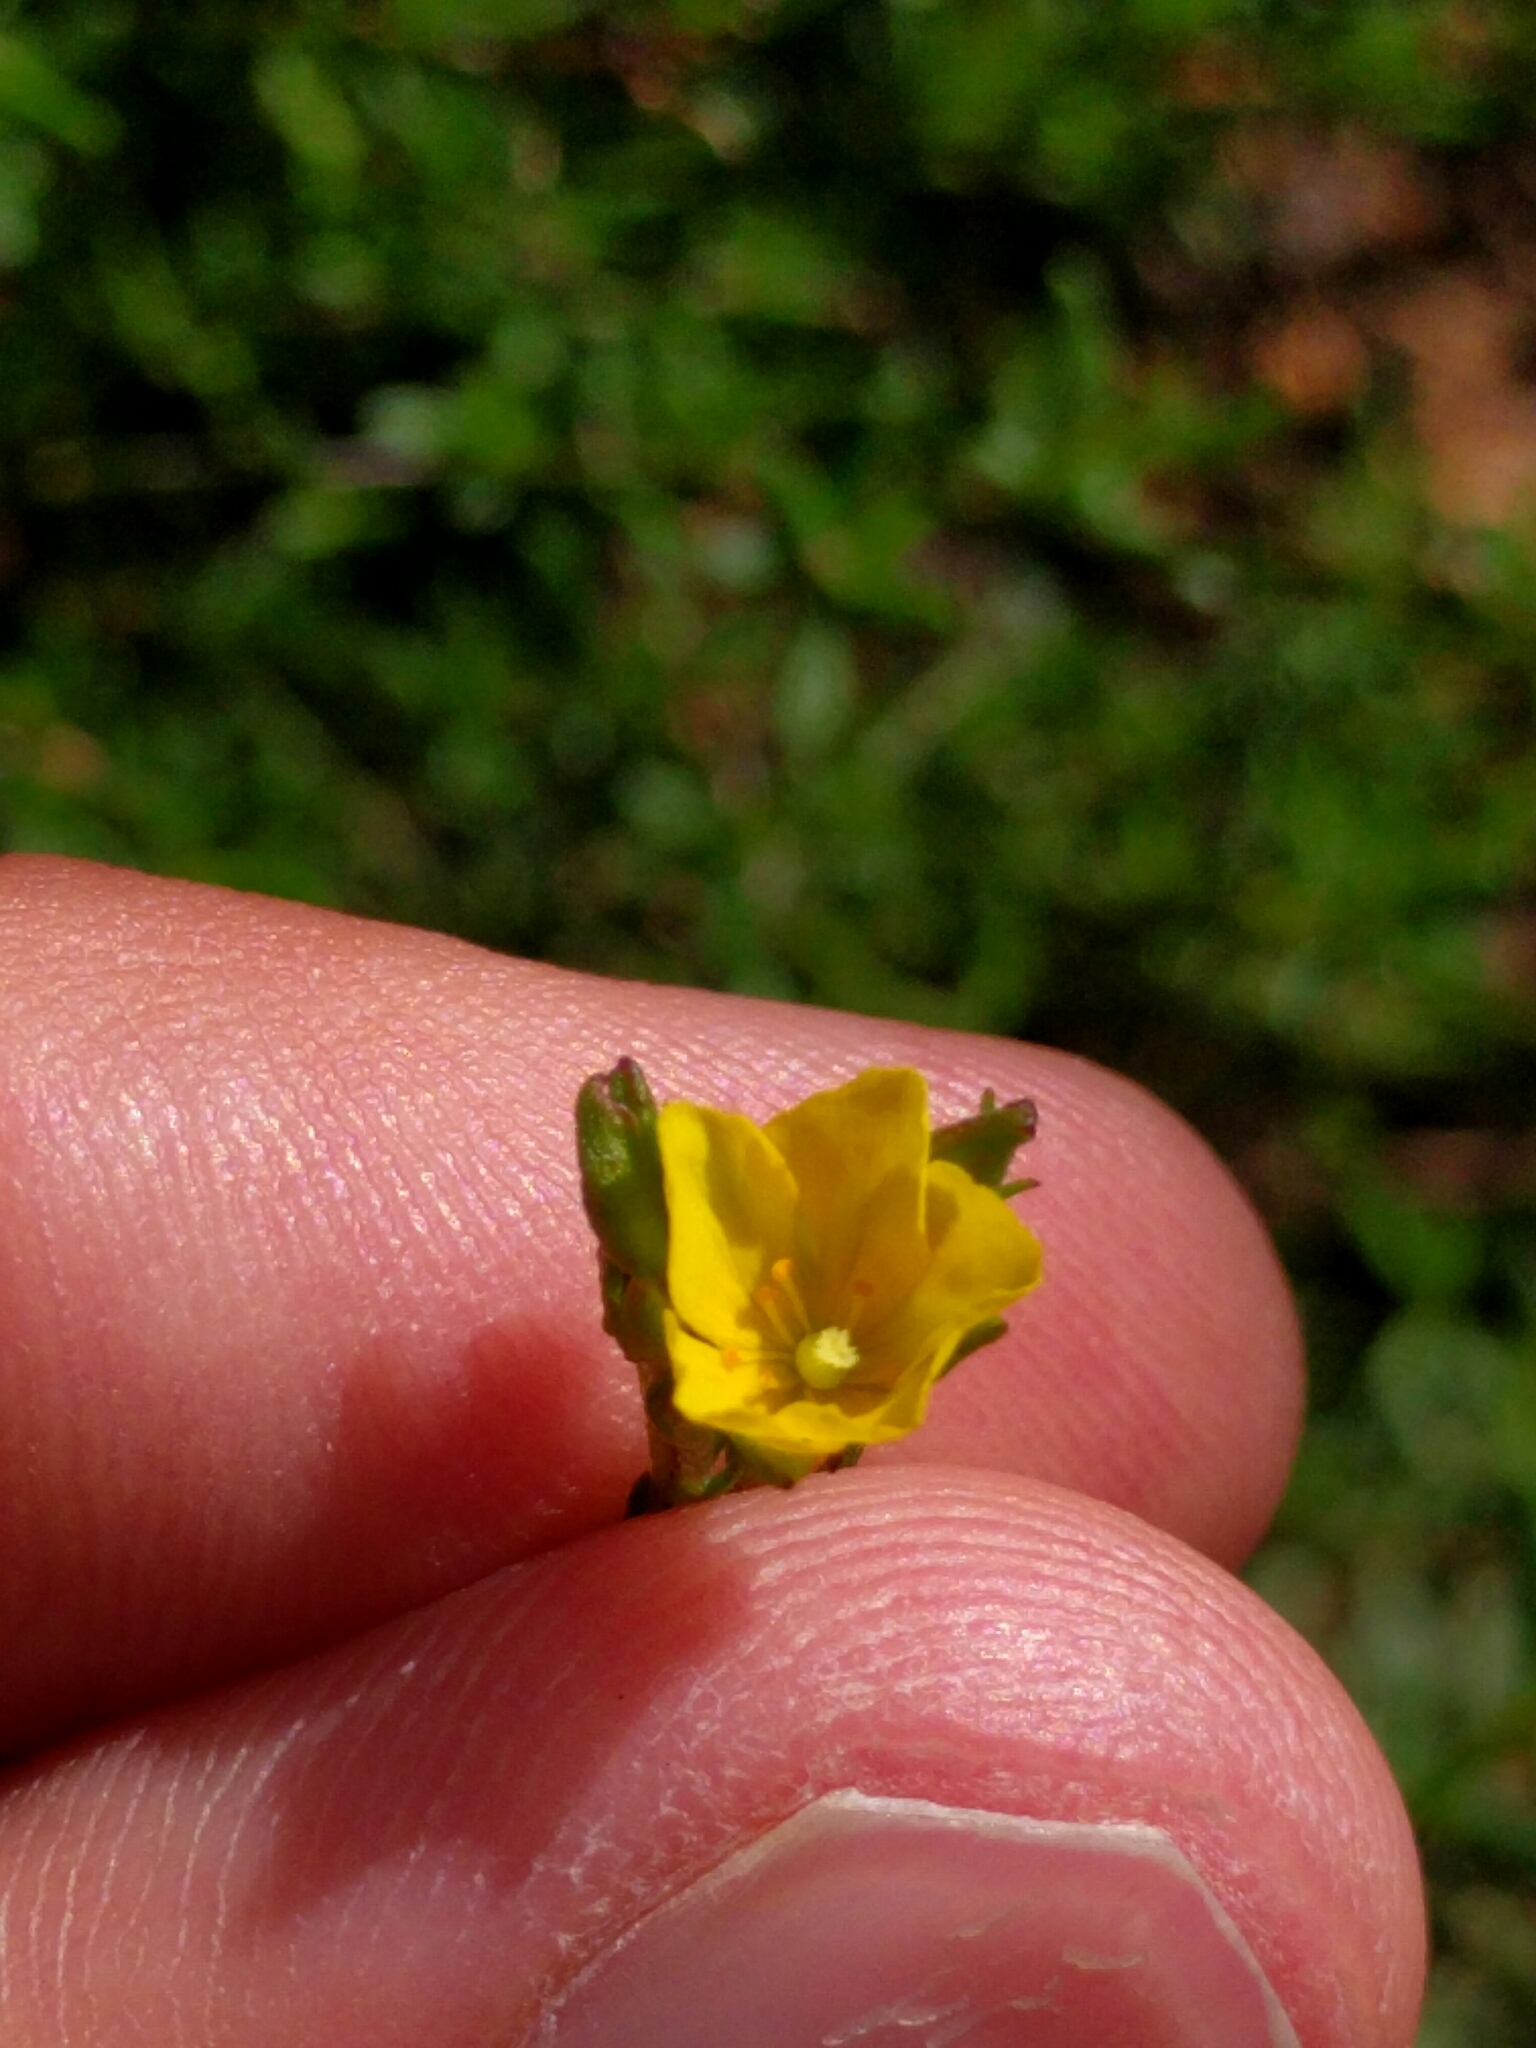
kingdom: Plantae
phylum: Tracheophyta
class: Magnoliopsida
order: Malvales
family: Cistaceae
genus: Crocanthemum
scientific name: Crocanthemum scoparium
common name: Broom-rose
